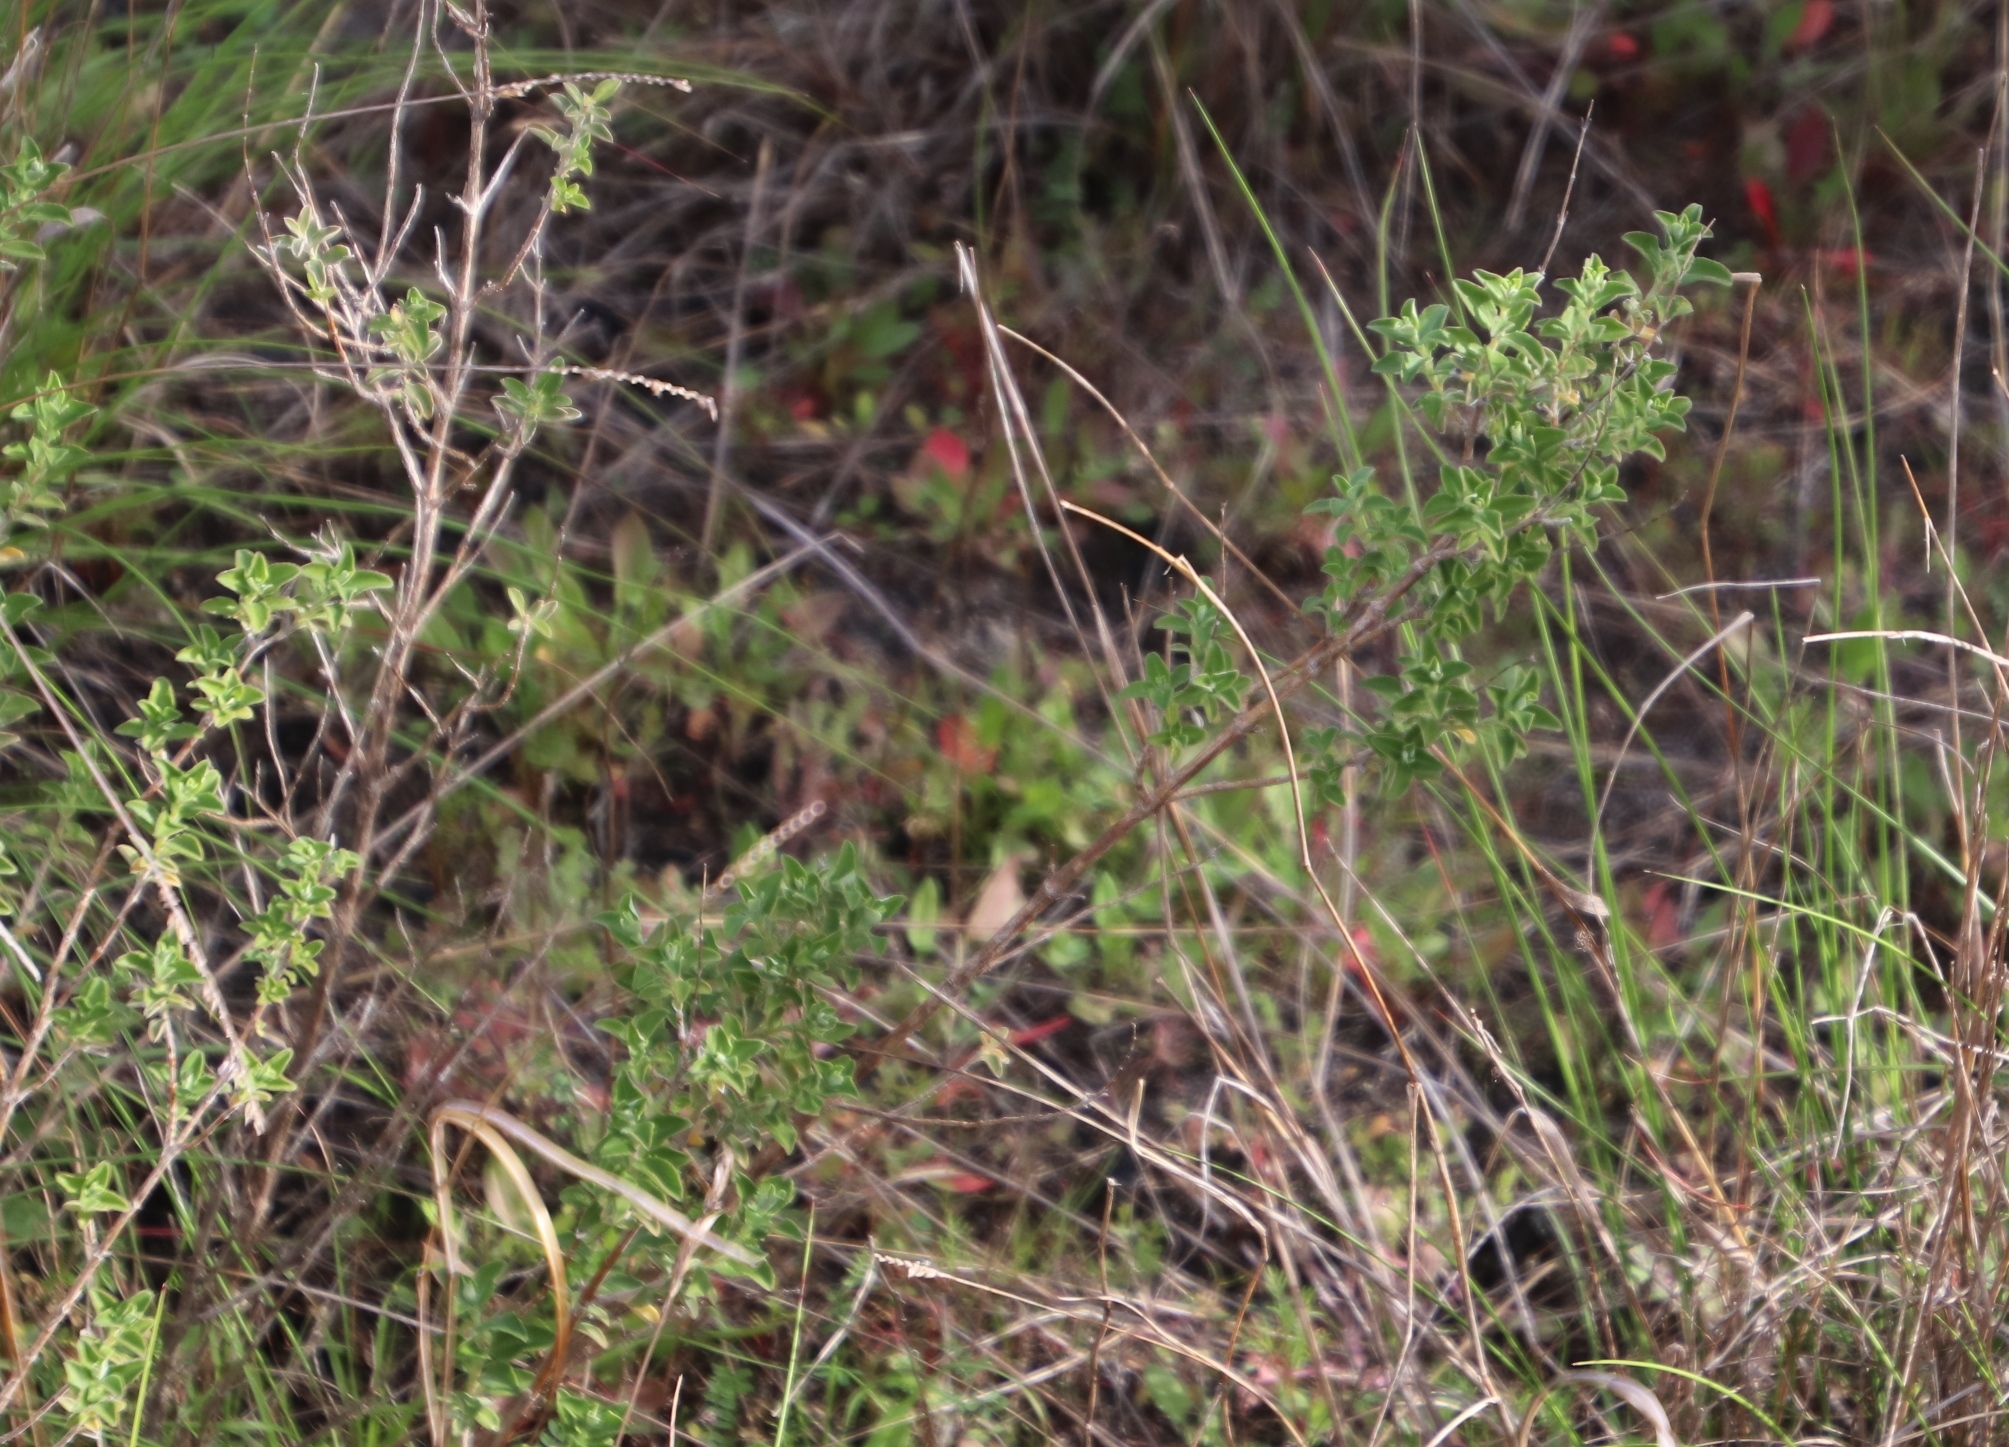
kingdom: Plantae
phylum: Tracheophyta
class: Magnoliopsida
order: Lamiales
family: Lamiaceae
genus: Salvia
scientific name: Salvia africana
